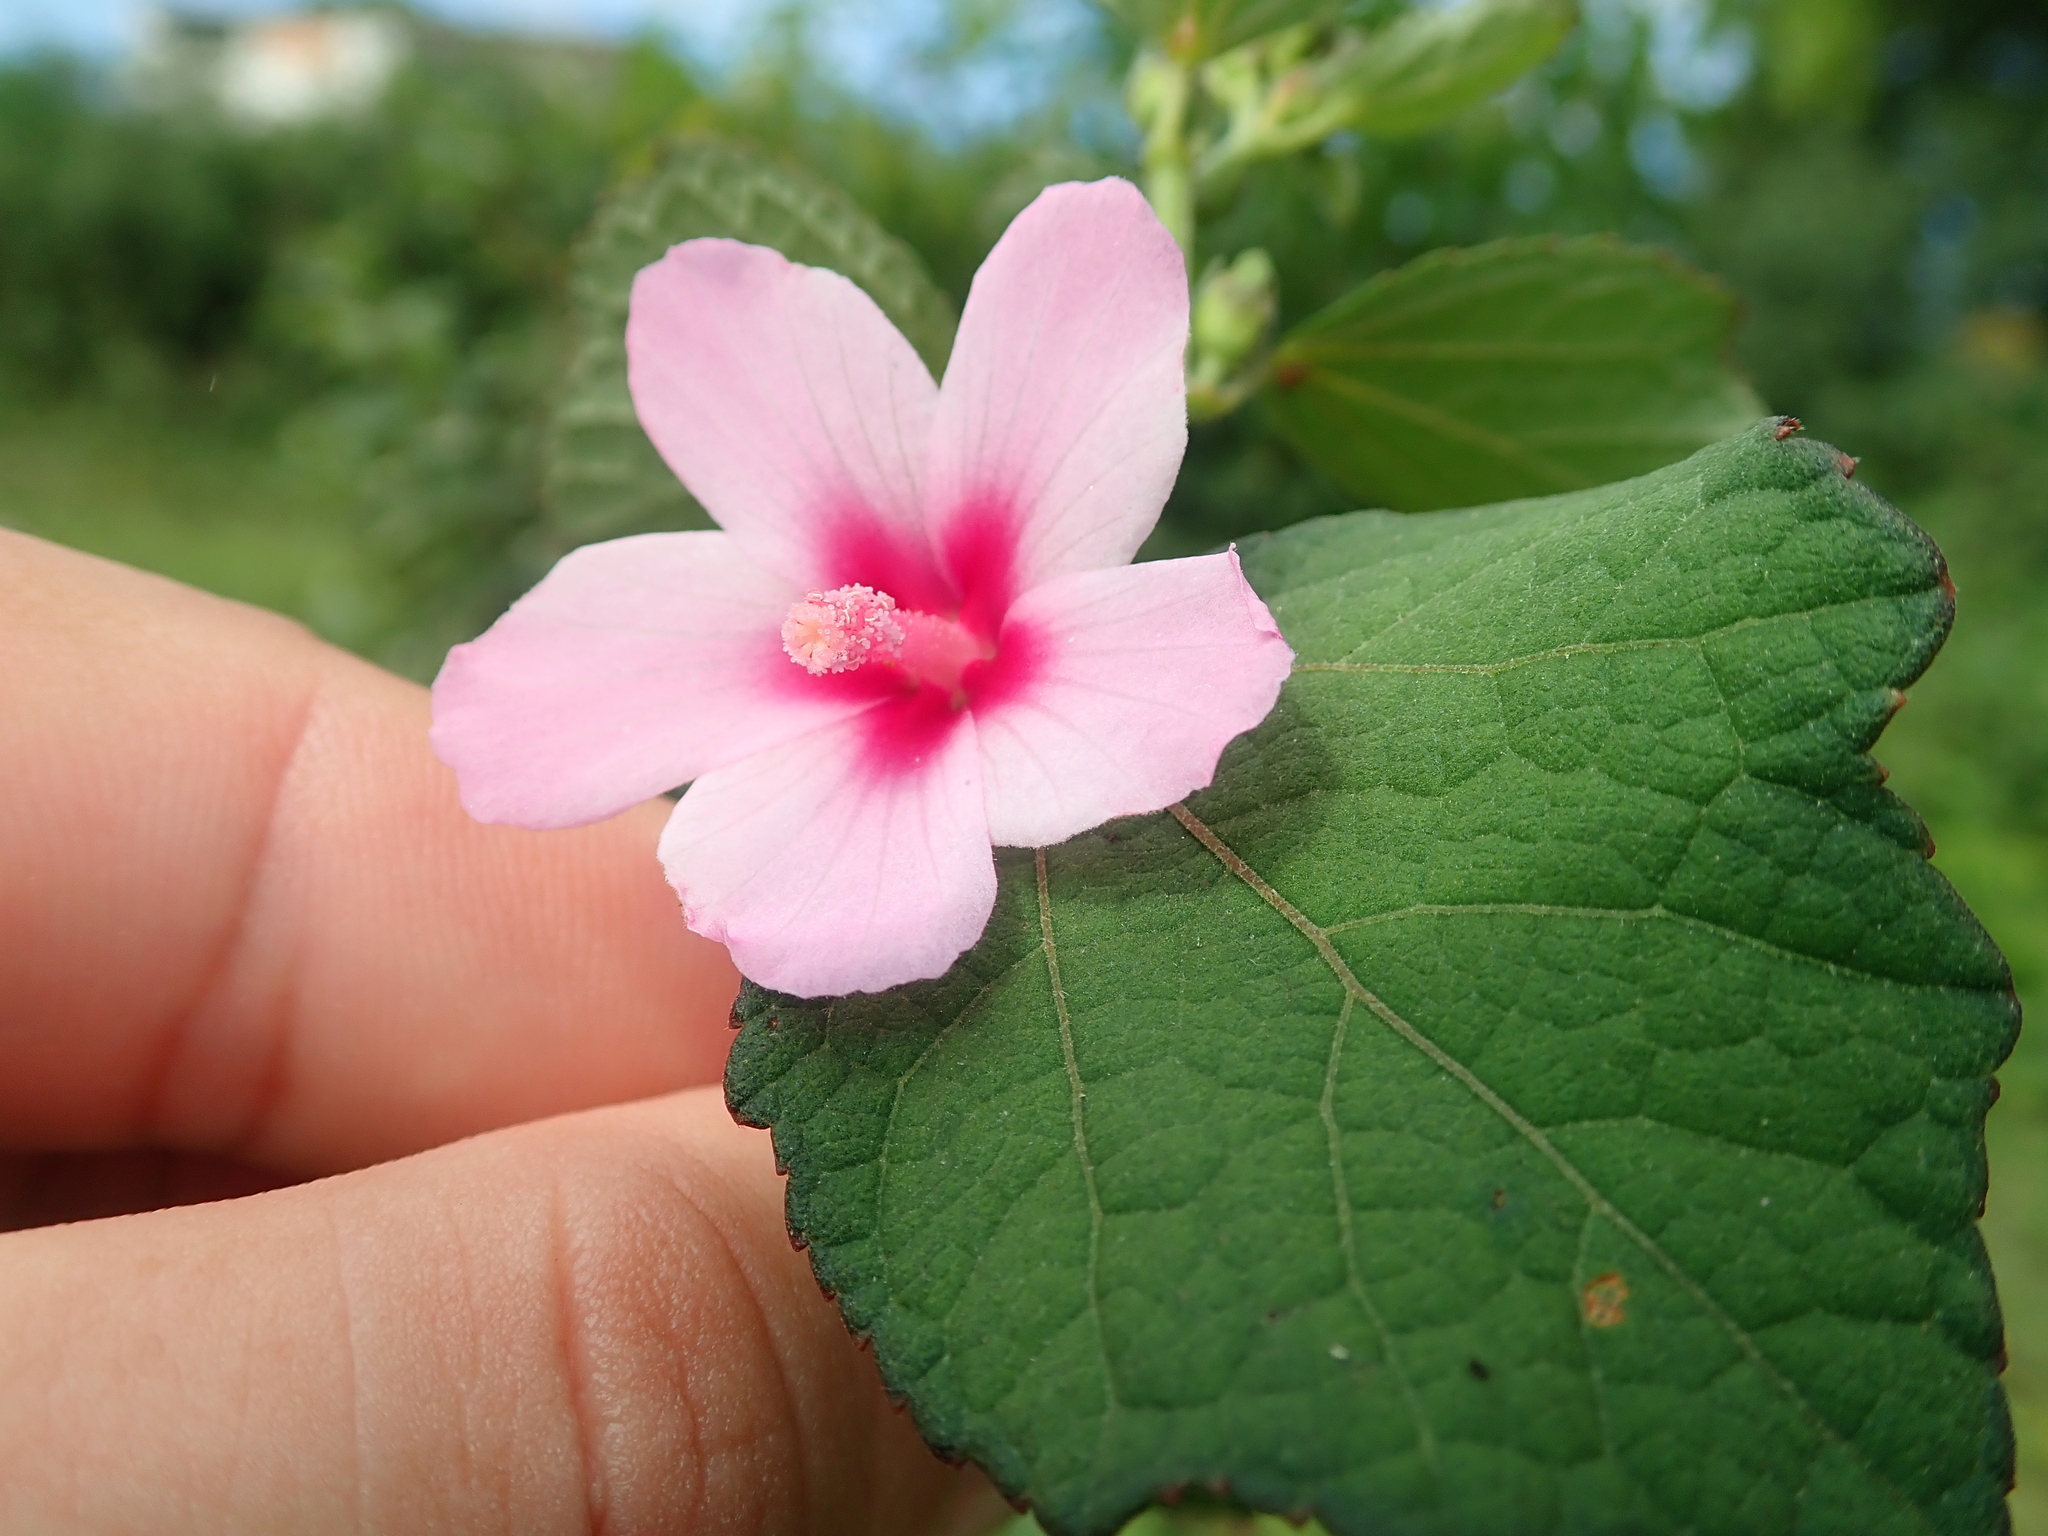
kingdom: Plantae
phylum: Tracheophyta
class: Magnoliopsida
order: Malvales
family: Malvaceae
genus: Urena
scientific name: Urena lobata
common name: Caesarweed
